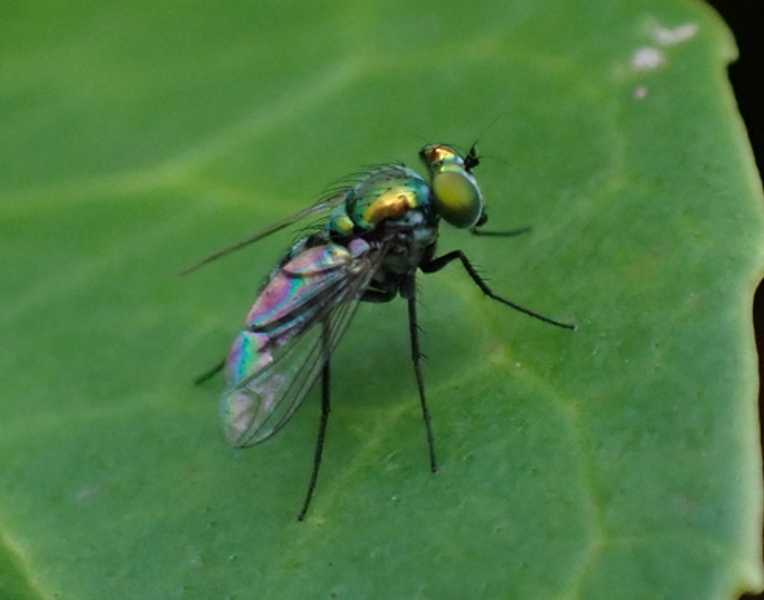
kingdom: Animalia
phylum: Arthropoda
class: Insecta
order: Diptera
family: Dolichopodidae
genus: Condylostylus
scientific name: Condylostylus mundus
